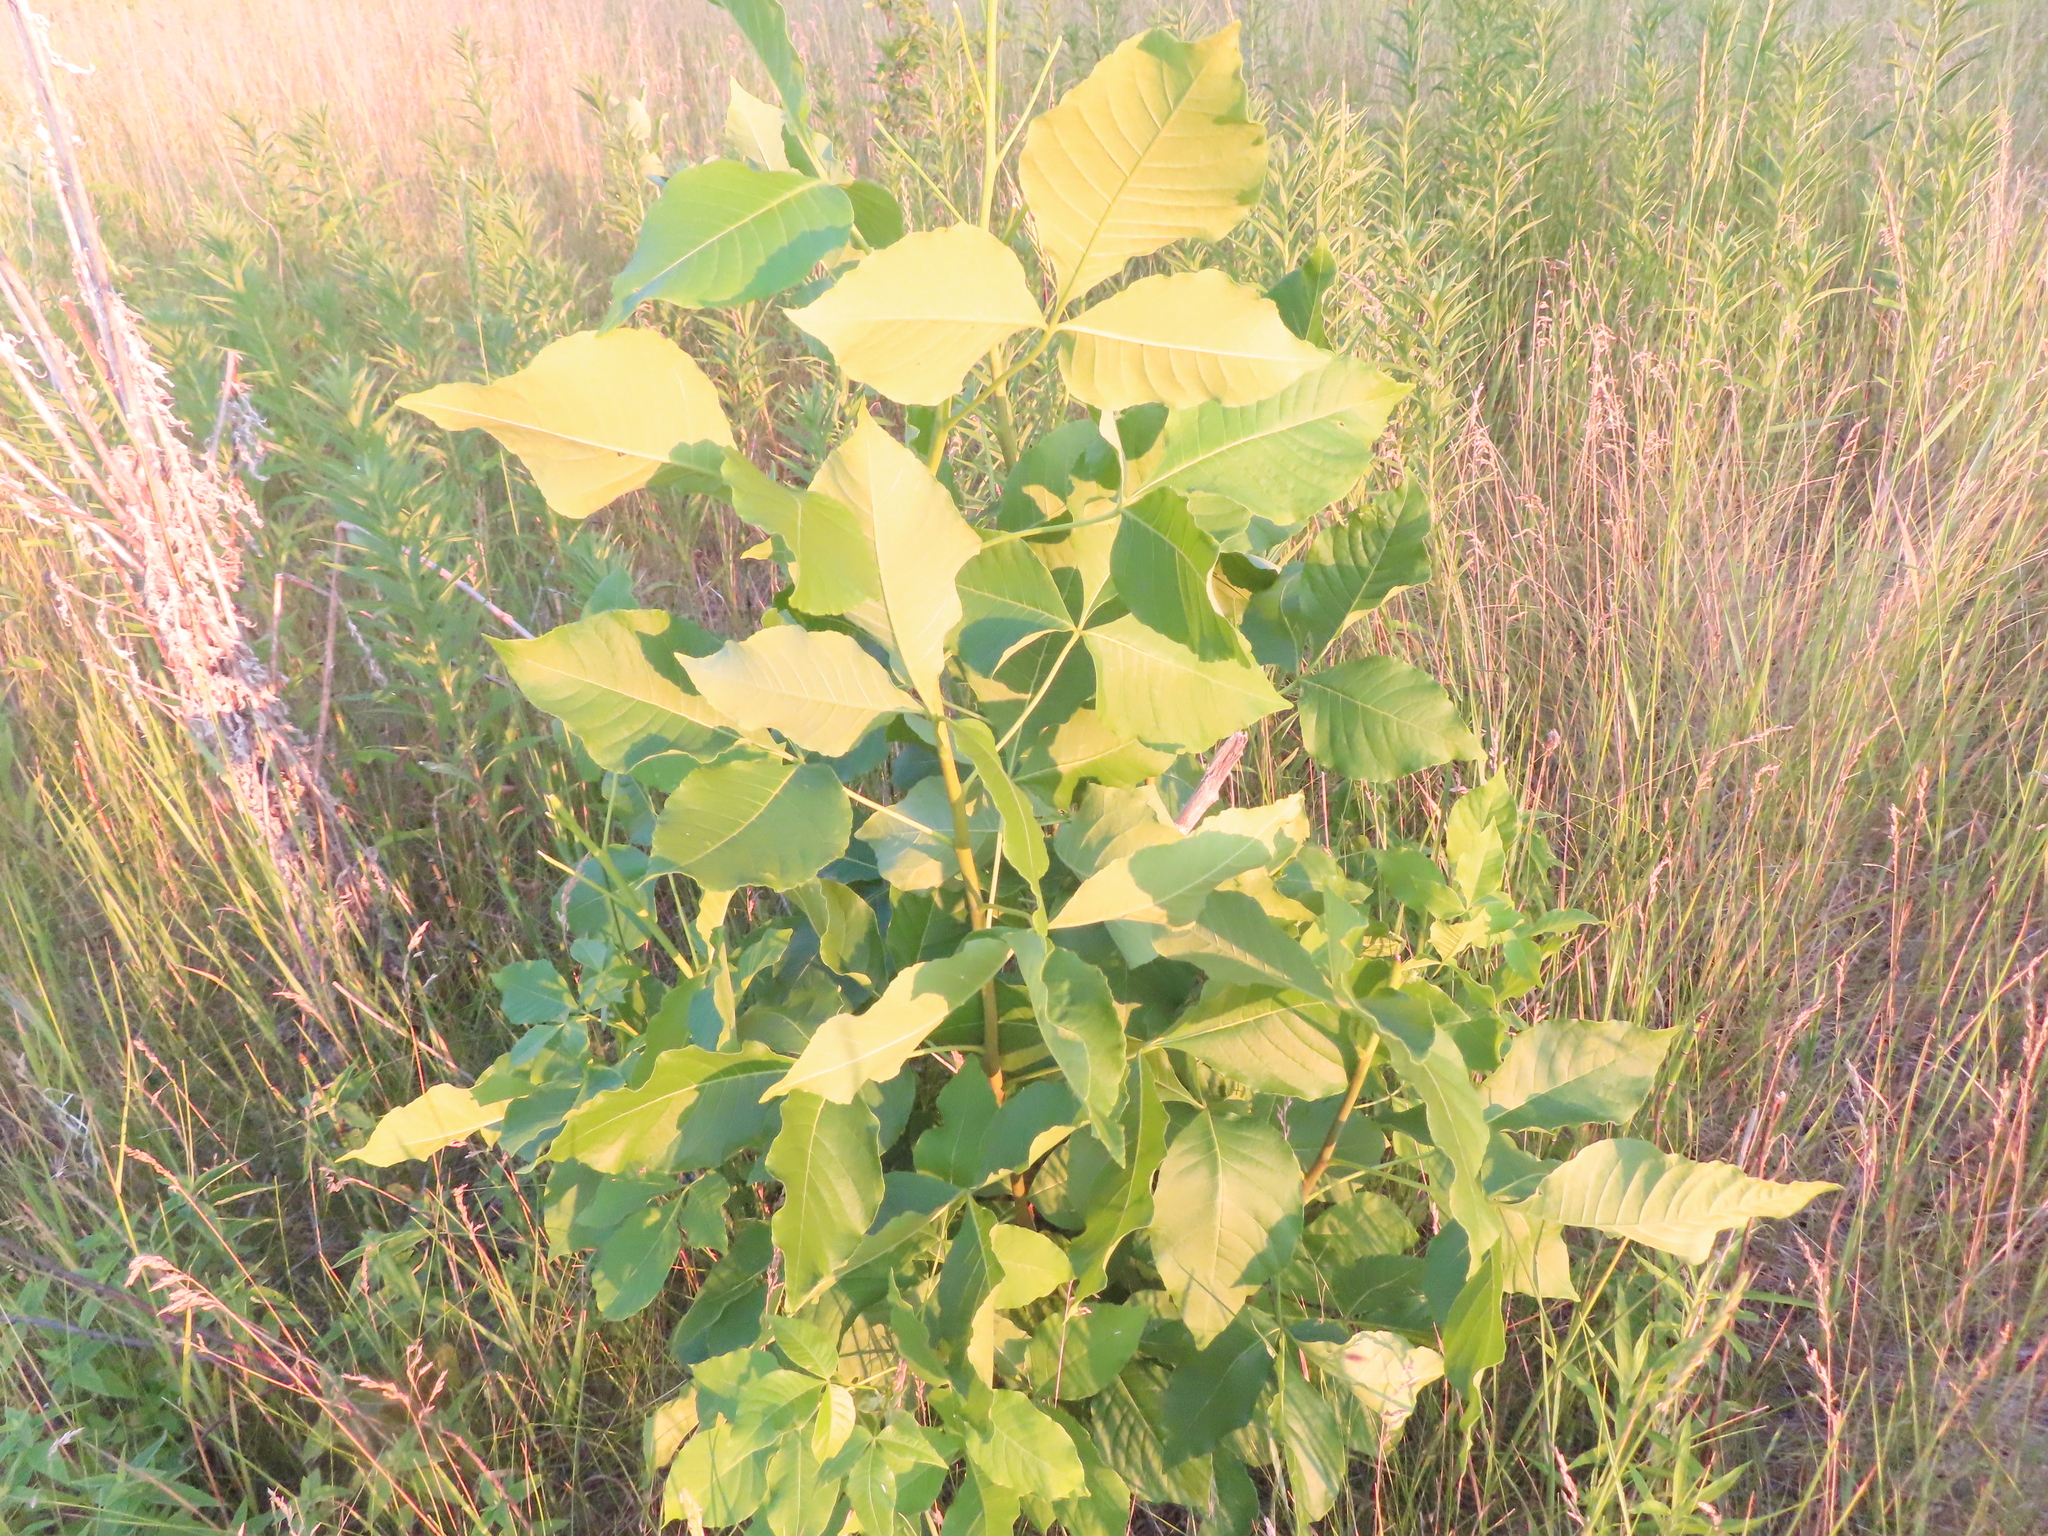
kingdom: Plantae
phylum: Tracheophyta
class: Magnoliopsida
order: Sapindales
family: Rutaceae
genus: Ptelea
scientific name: Ptelea trifoliata
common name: Common hop-tree
